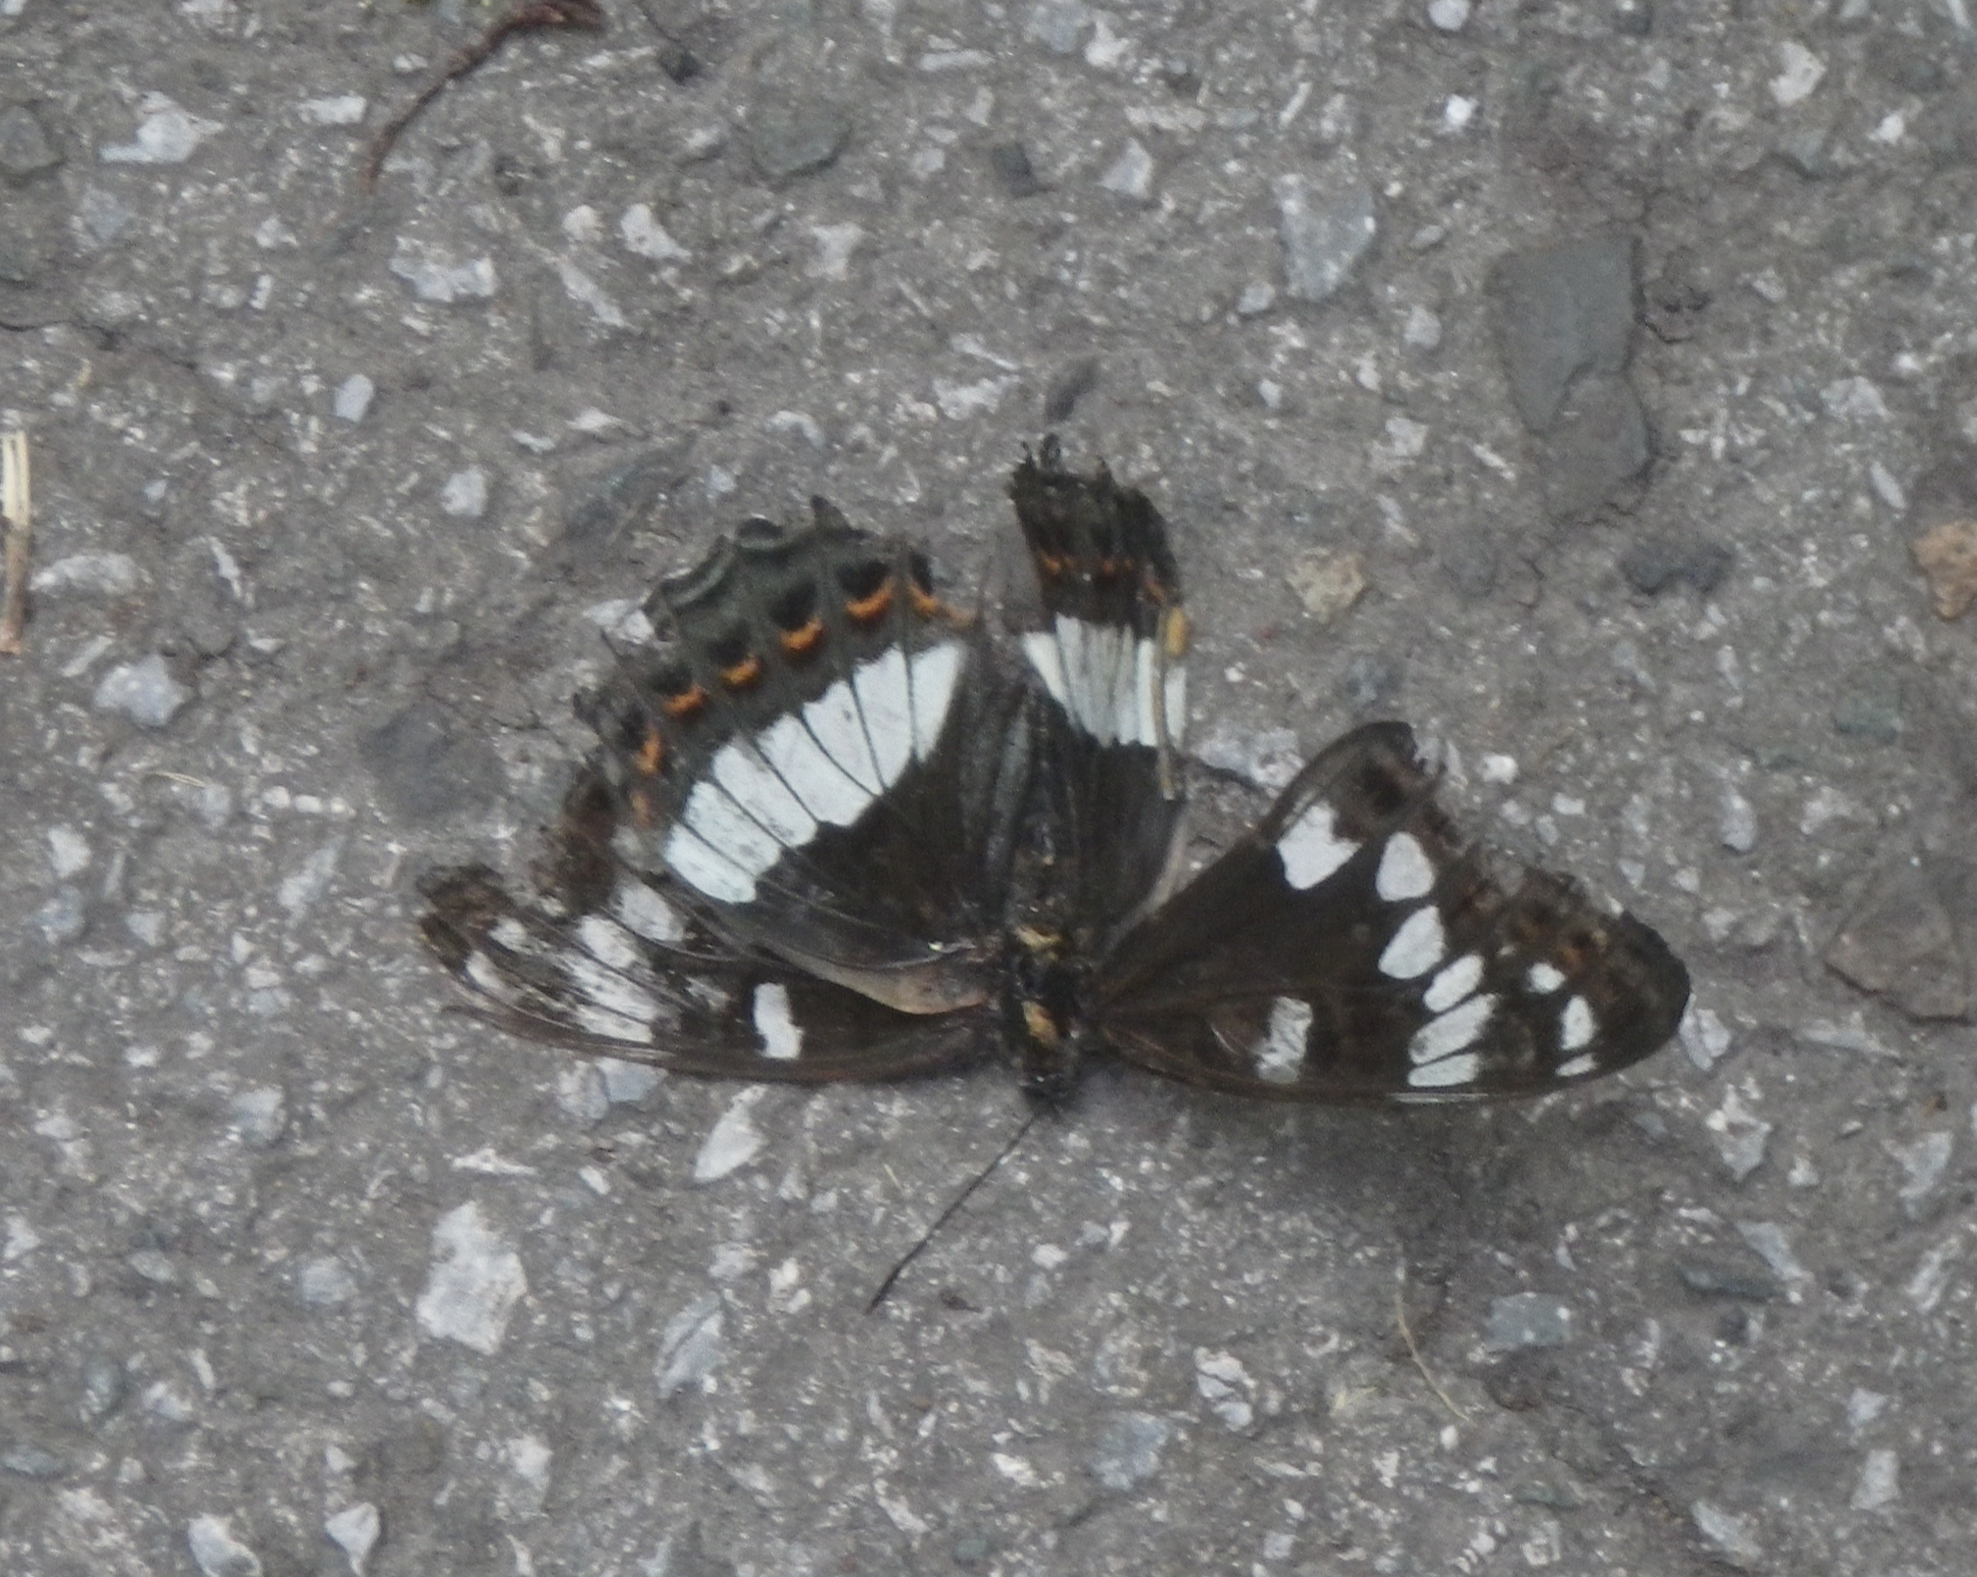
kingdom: Animalia
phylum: Arthropoda
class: Insecta
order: Lepidoptera
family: Nymphalidae
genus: Limenitis
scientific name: Limenitis populi
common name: Poplar admiral
